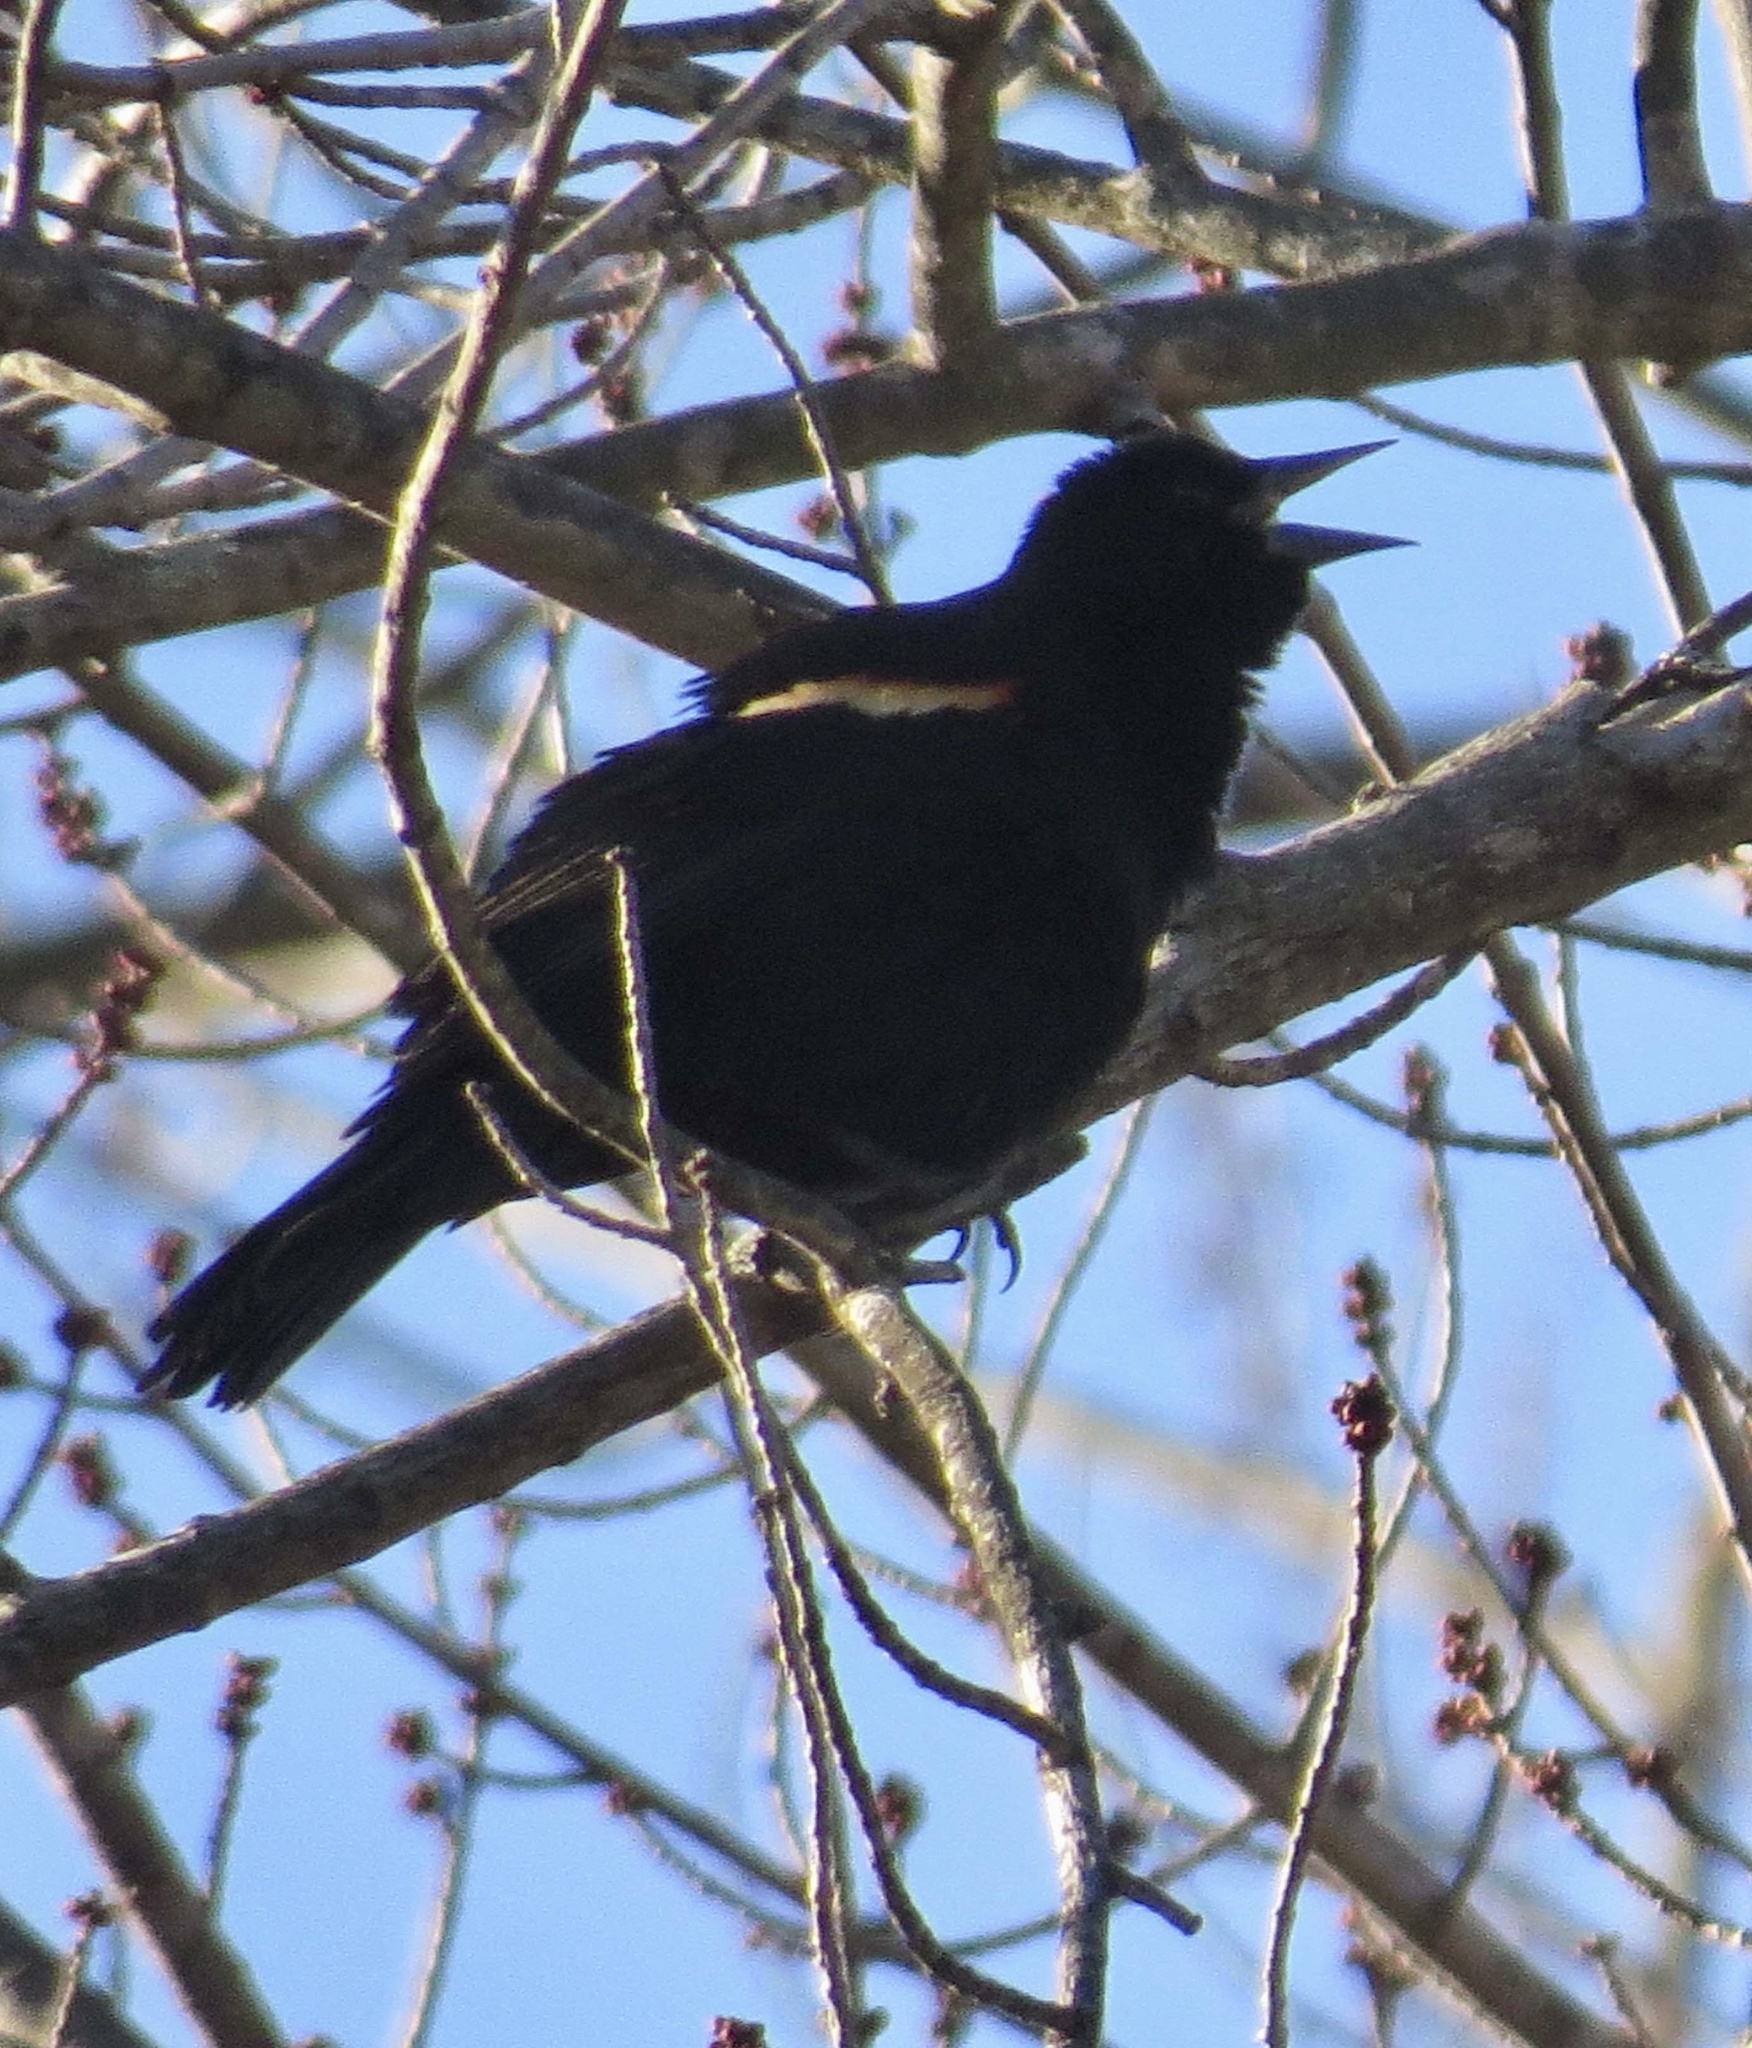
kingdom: Animalia
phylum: Chordata
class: Aves
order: Passeriformes
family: Icteridae
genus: Agelaius
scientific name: Agelaius phoeniceus
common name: Red-winged blackbird
